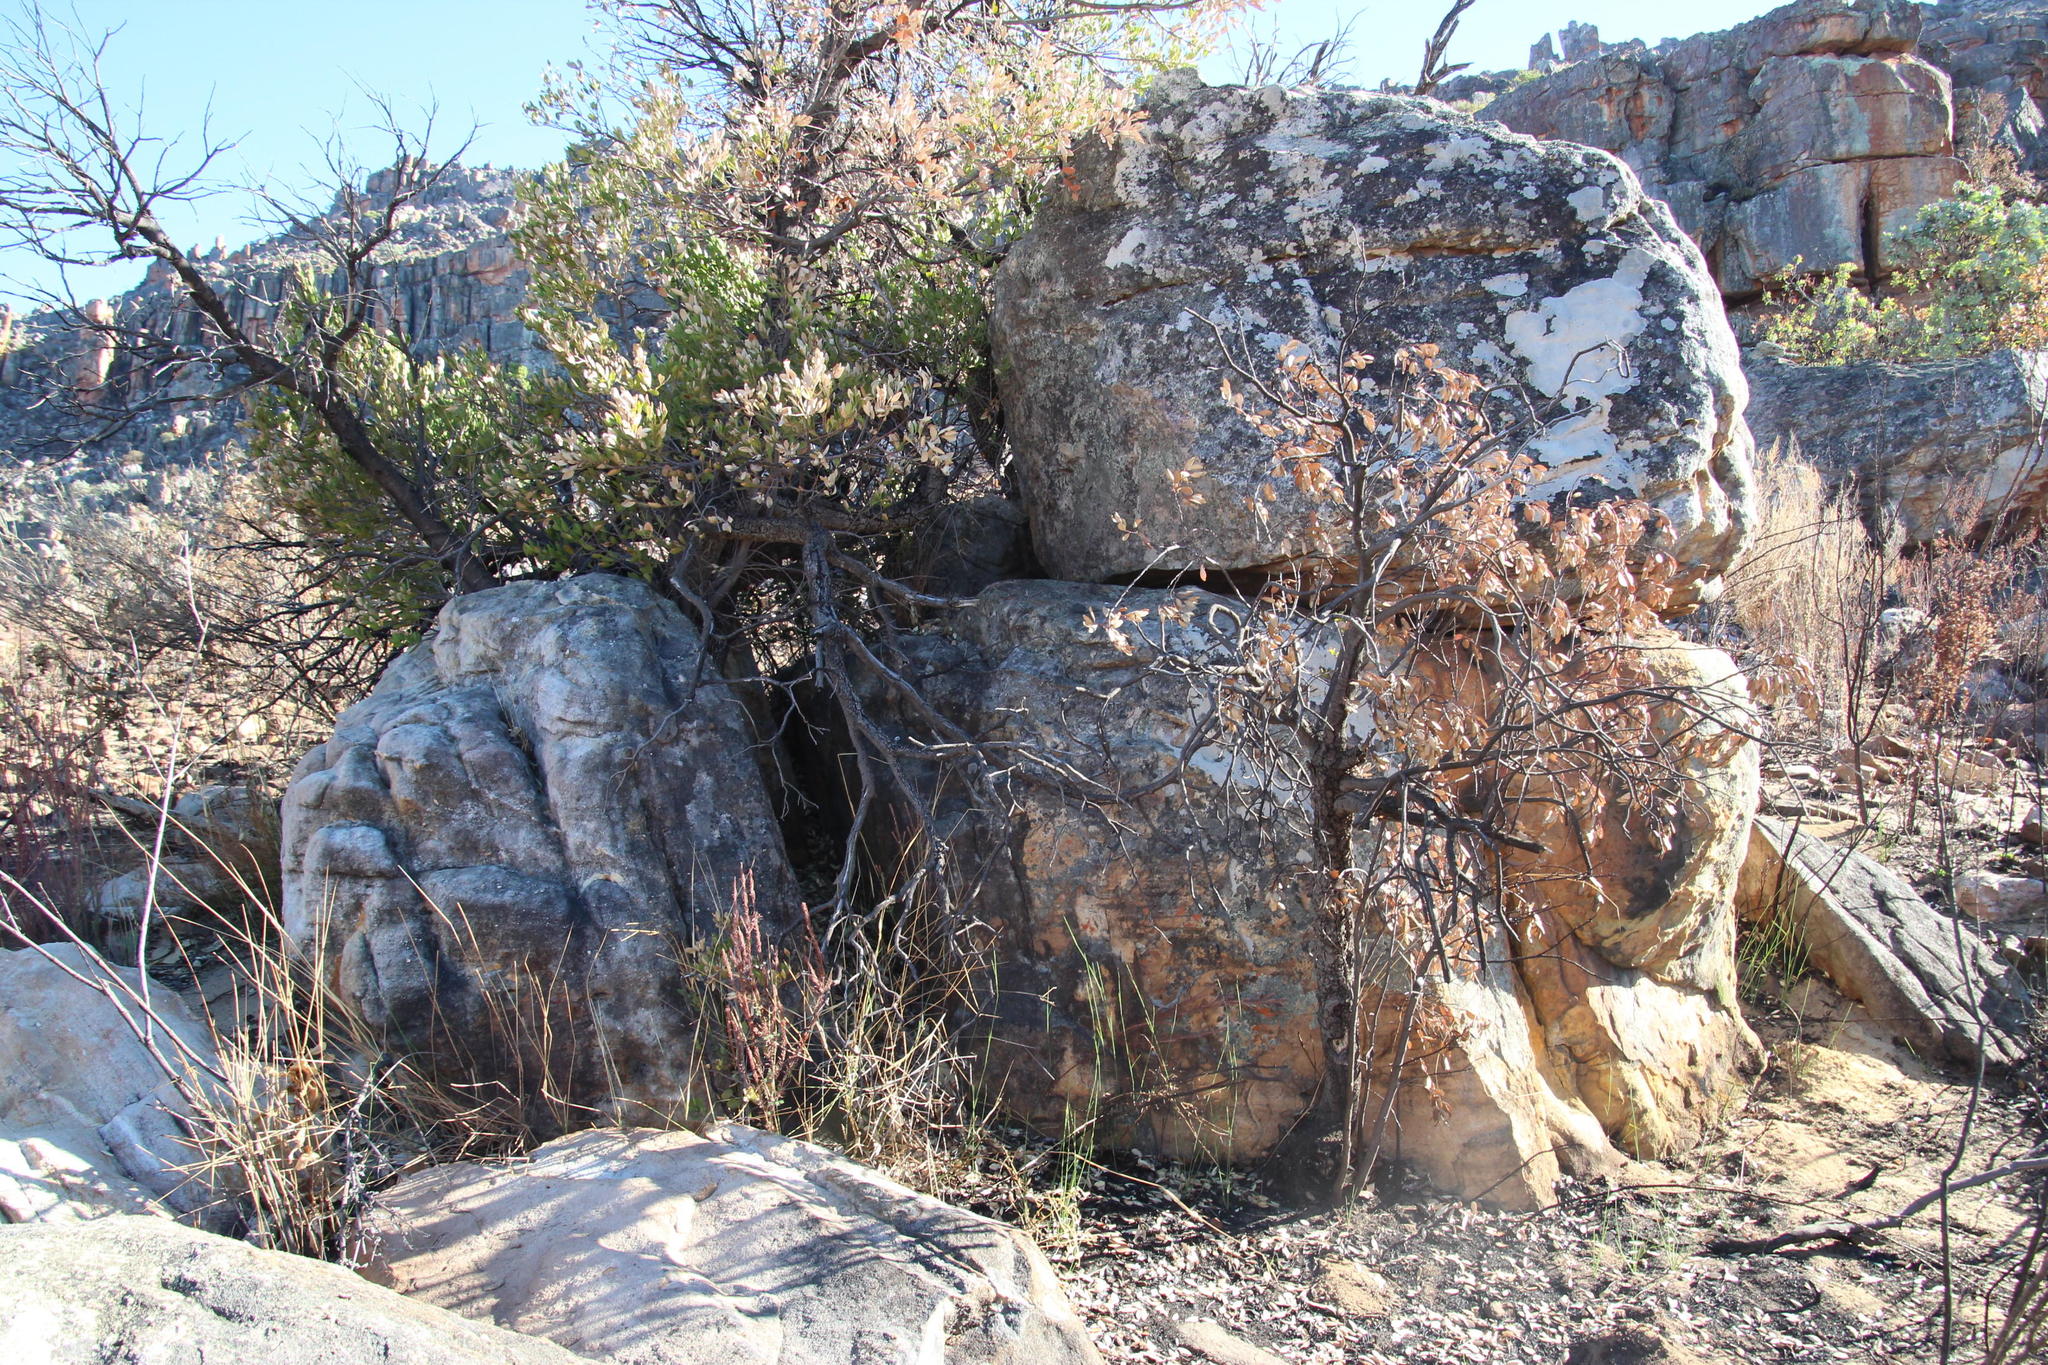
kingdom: Plantae
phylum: Tracheophyta
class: Magnoliopsida
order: Celastrales
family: Celastraceae
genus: Gymnosporia
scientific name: Gymnosporia laurina
